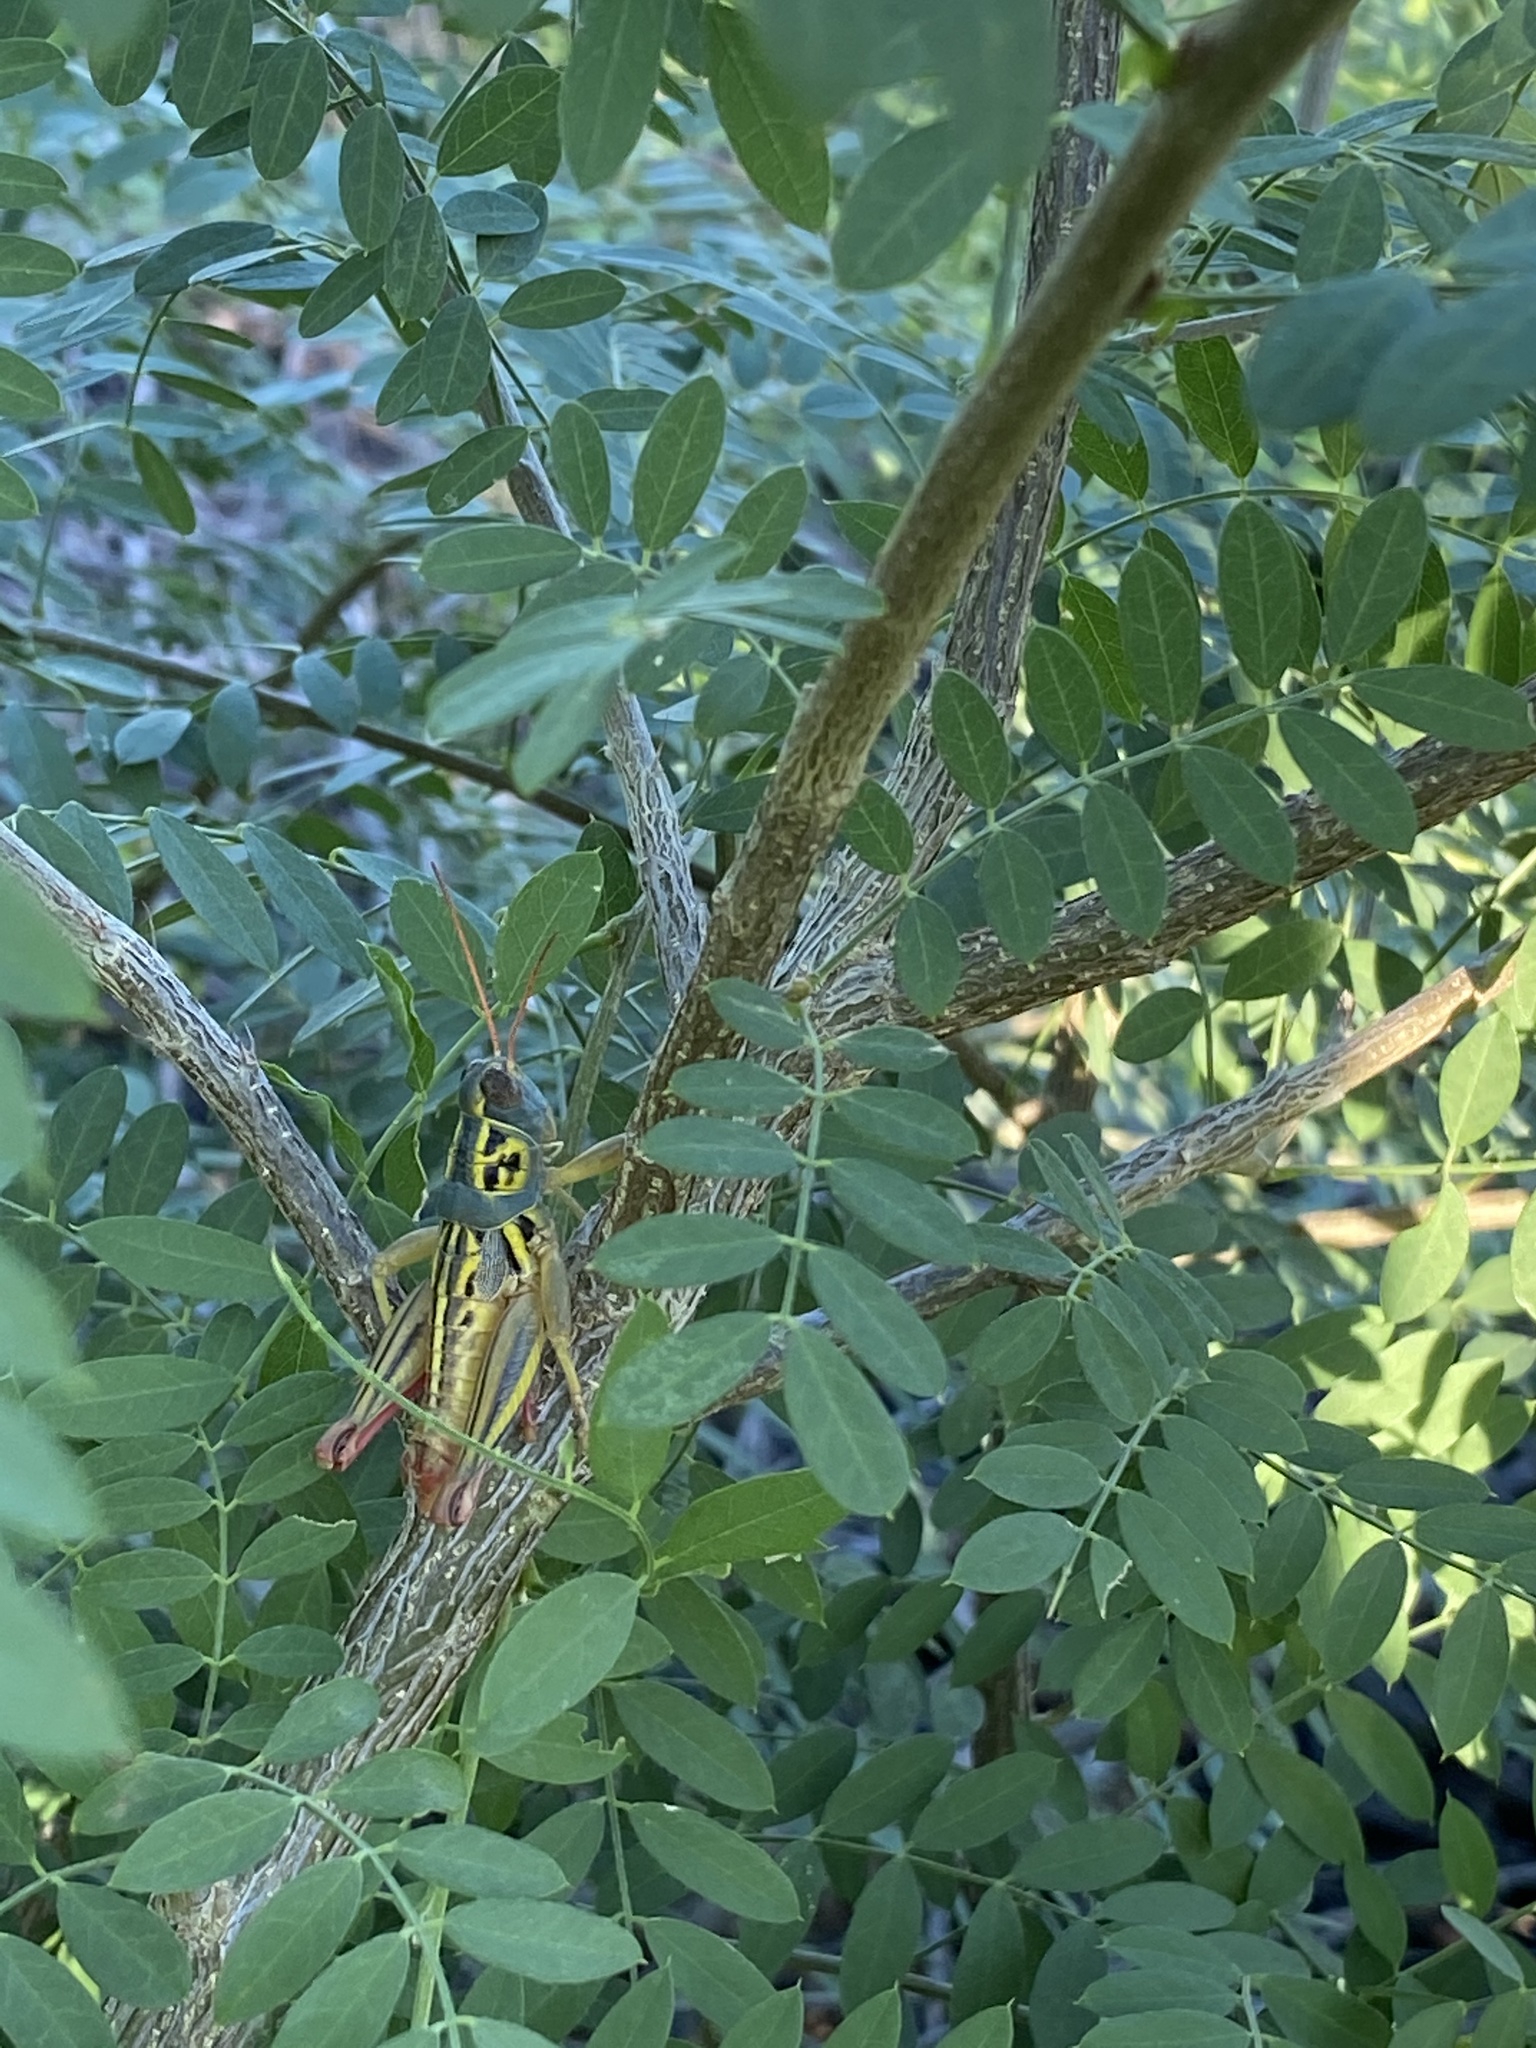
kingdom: Animalia
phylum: Arthropoda
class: Insecta
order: Orthoptera
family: Acrididae
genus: Barytettix
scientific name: Barytettix humphreysii
